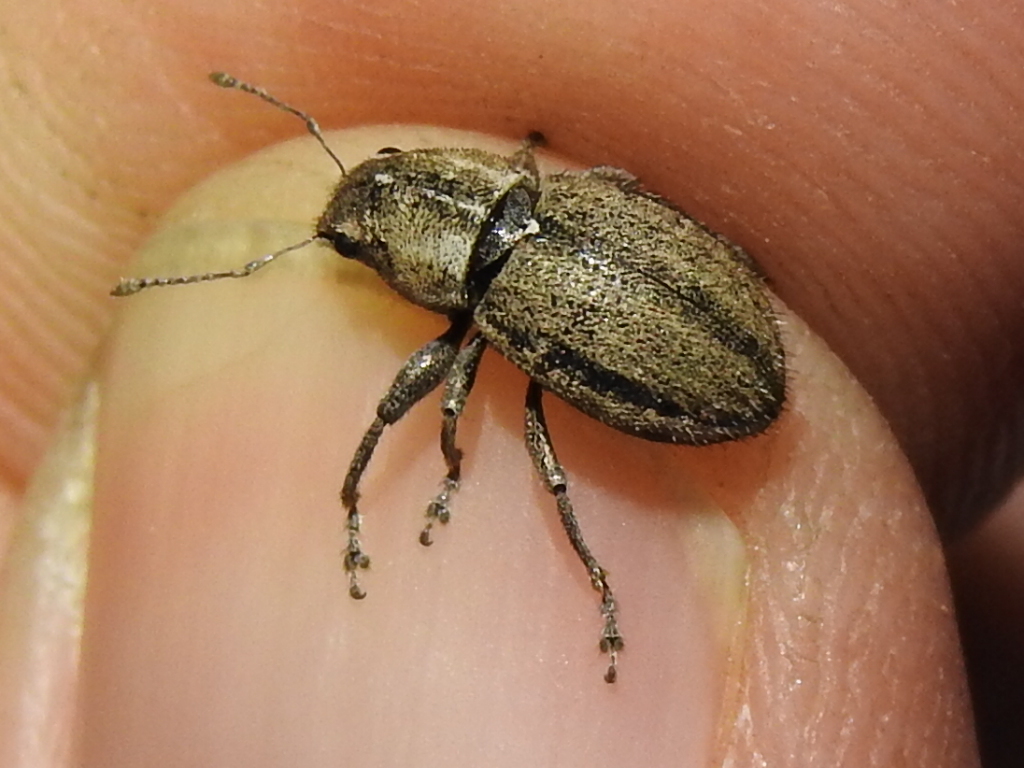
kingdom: Animalia
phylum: Arthropoda
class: Insecta
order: Coleoptera
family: Curculionidae
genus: Naupactus
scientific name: Naupactus peregrinus
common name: Whitefringed beetle
